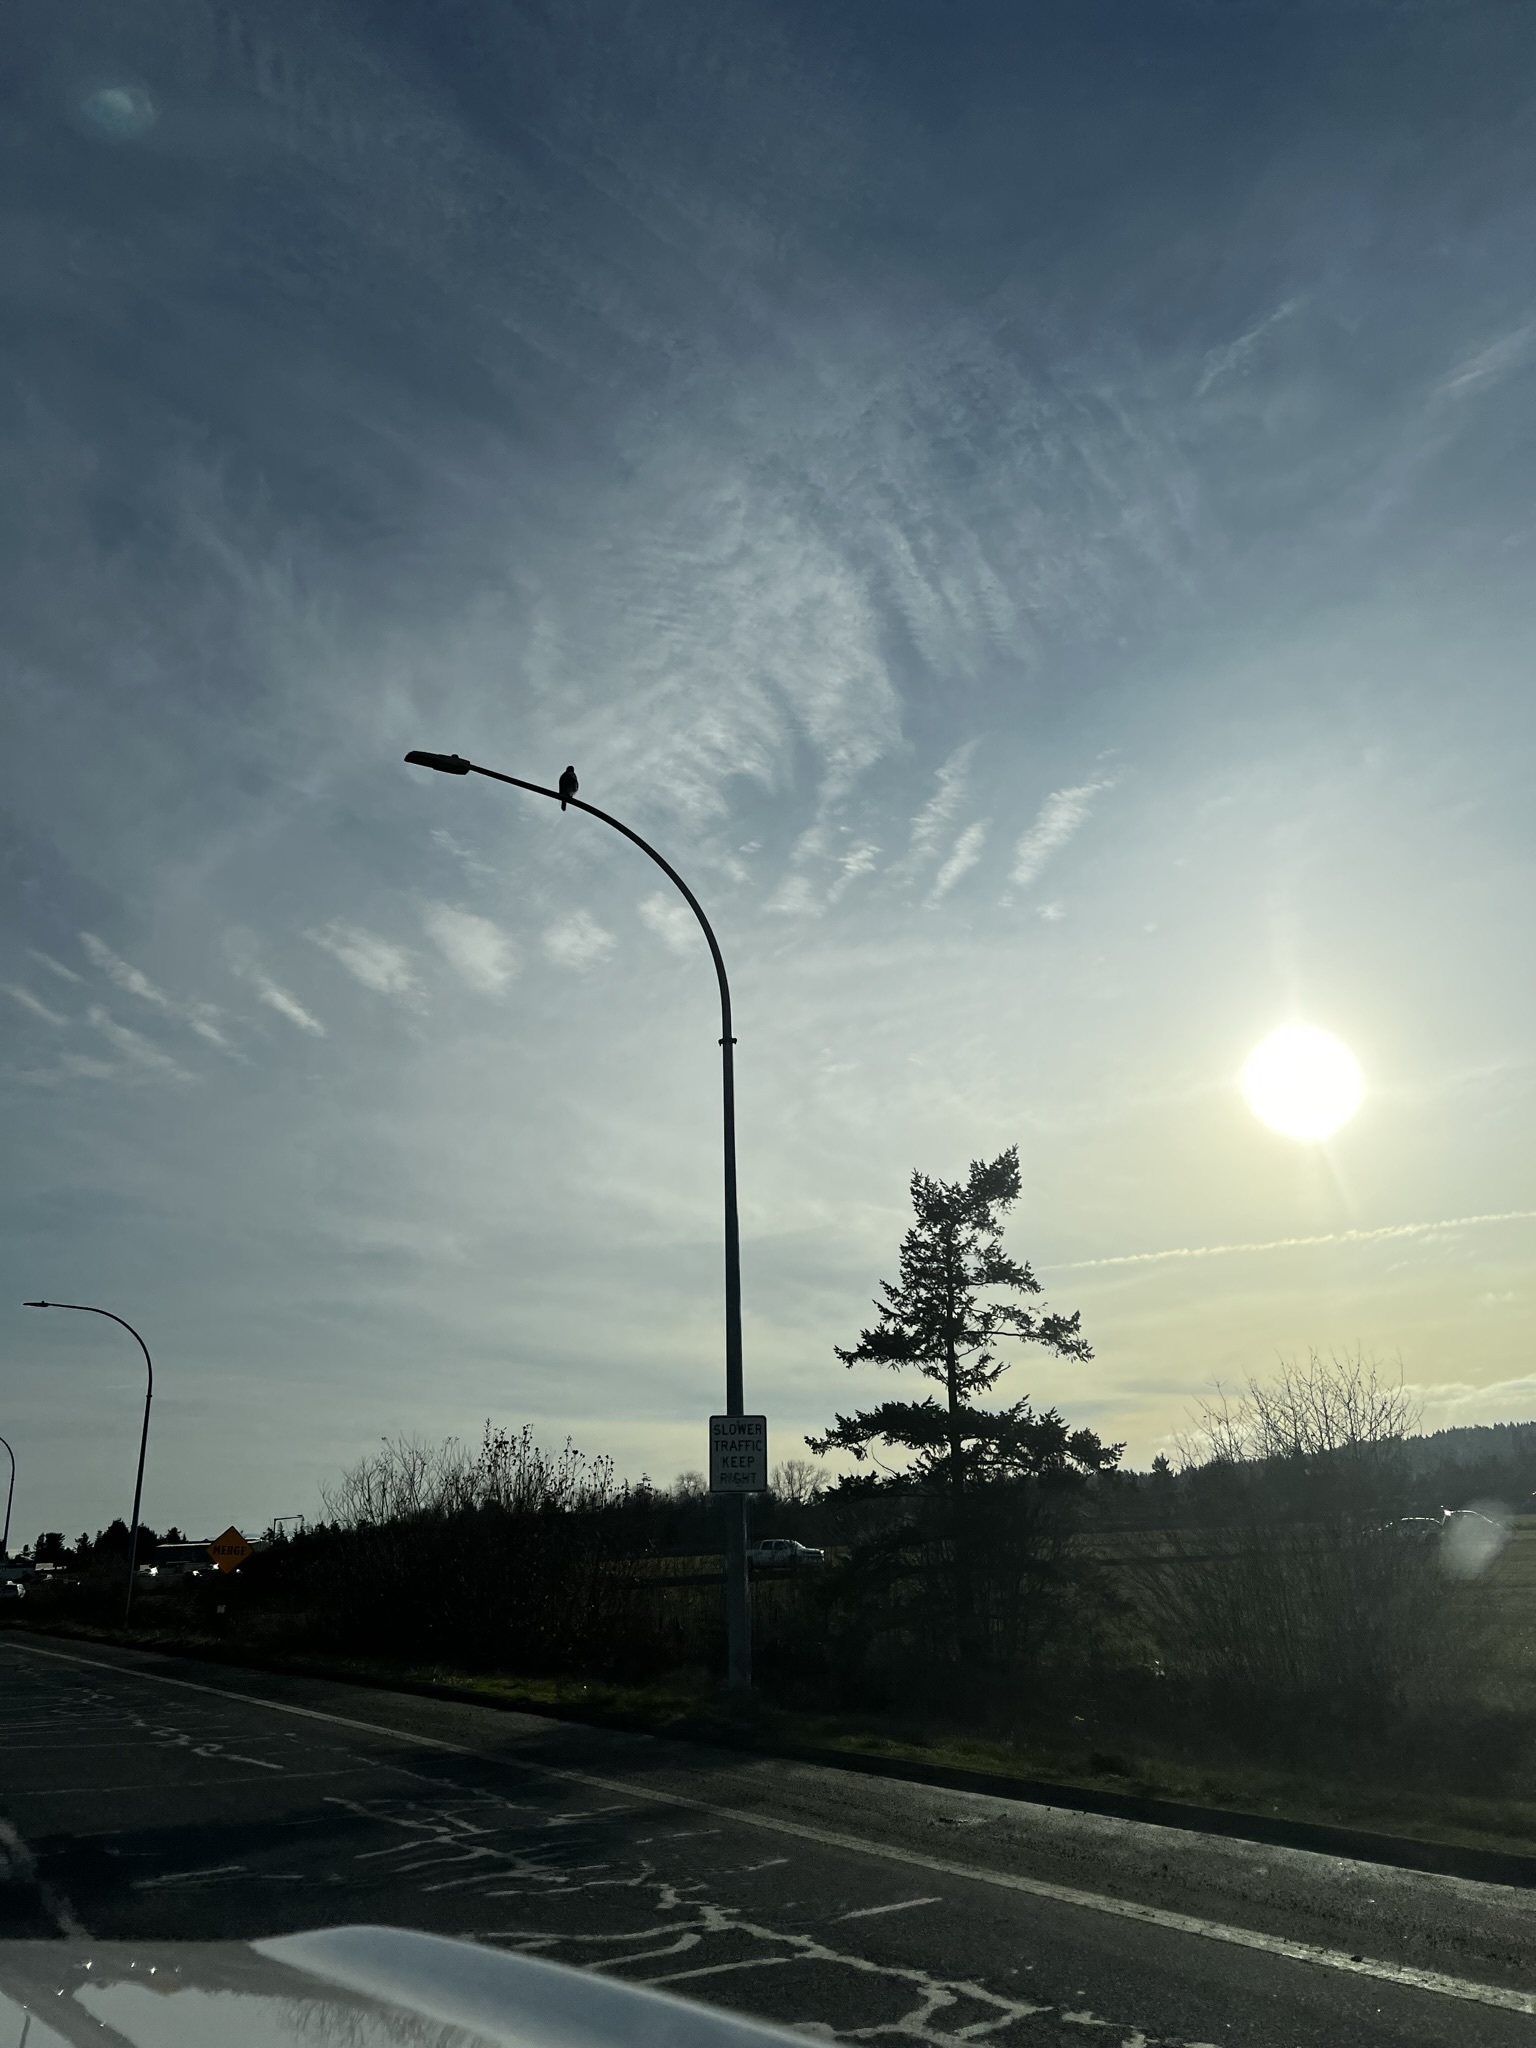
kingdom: Animalia
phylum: Chordata
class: Aves
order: Accipitriformes
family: Accipitridae
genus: Buteo
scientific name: Buteo jamaicensis
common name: Red-tailed hawk
